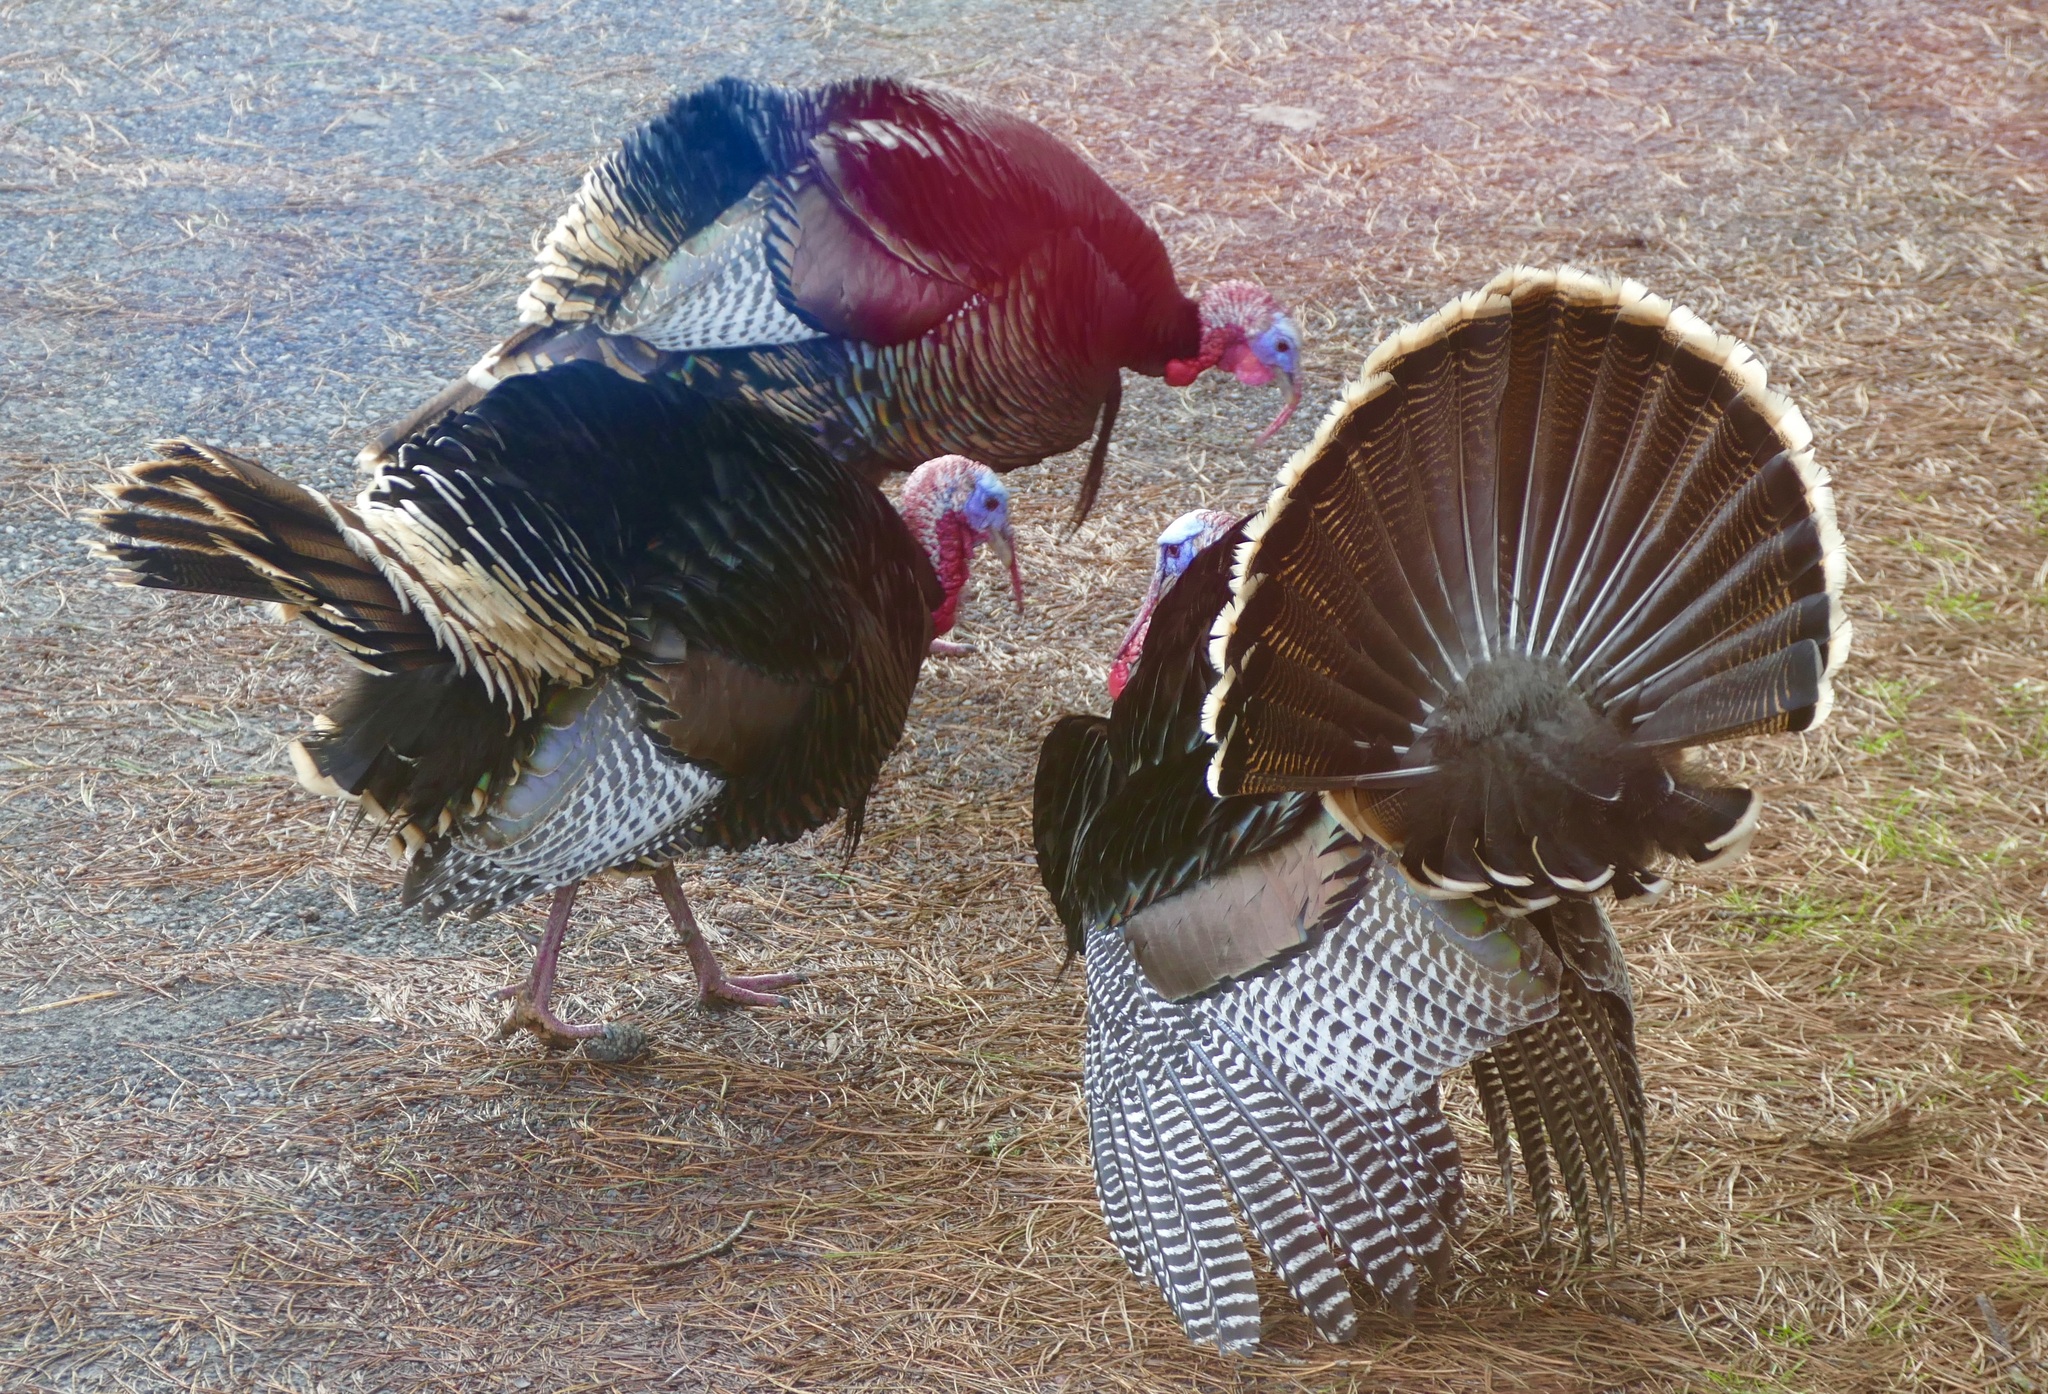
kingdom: Animalia
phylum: Chordata
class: Aves
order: Galliformes
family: Phasianidae
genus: Meleagris
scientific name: Meleagris gallopavo
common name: Wild turkey
